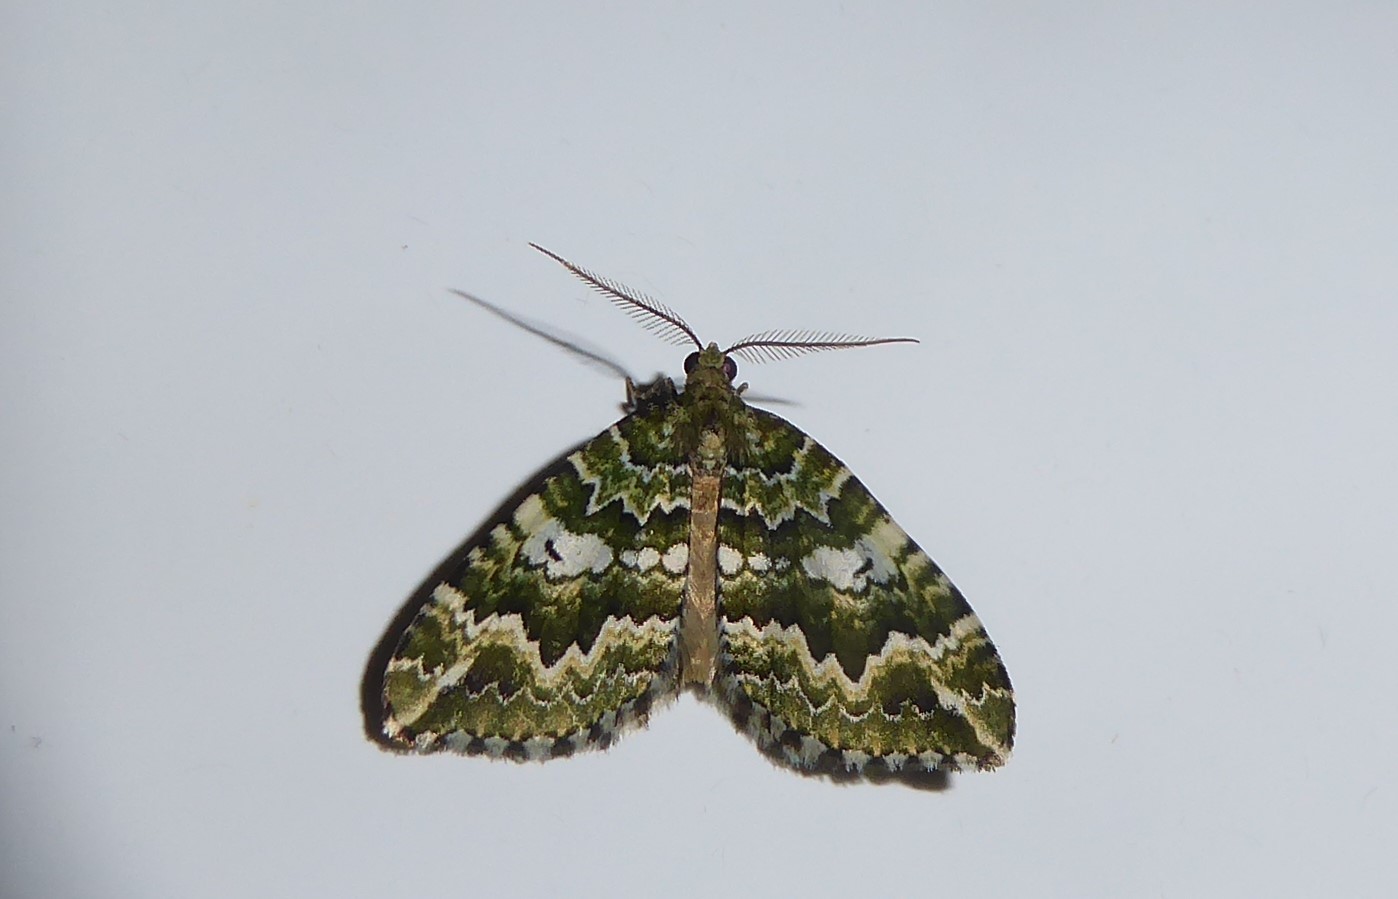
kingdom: Animalia
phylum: Arthropoda
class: Insecta
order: Lepidoptera
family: Geometridae
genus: Asaphodes
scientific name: Asaphodes beata
